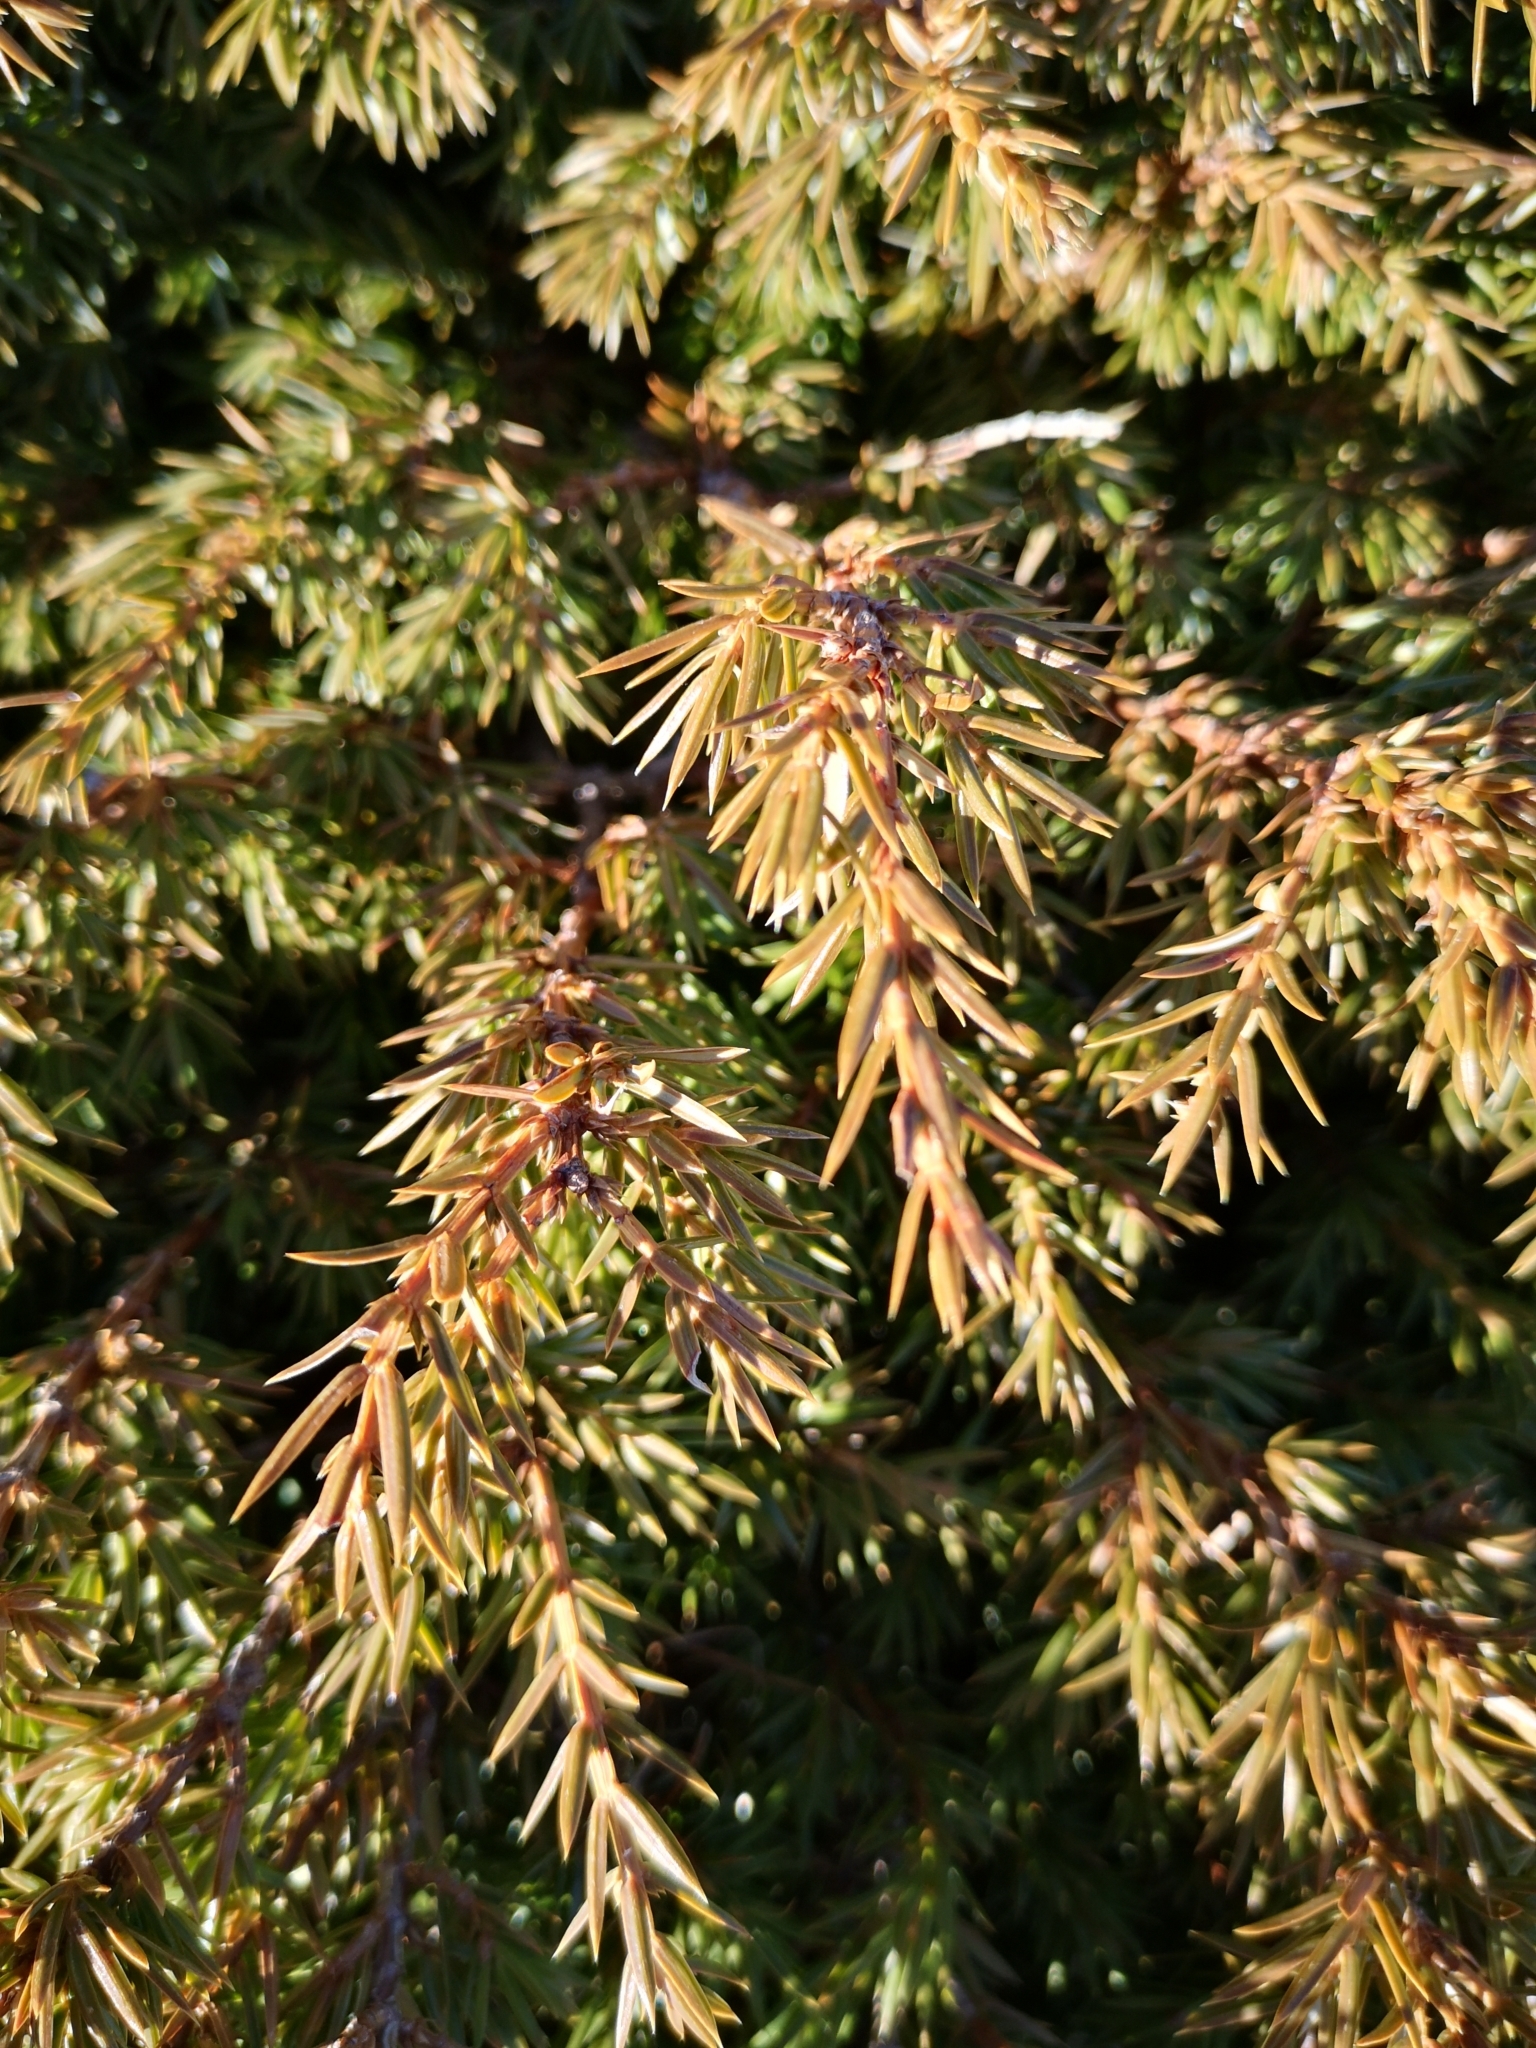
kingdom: Plantae
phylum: Tracheophyta
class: Pinopsida
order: Pinales
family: Cupressaceae
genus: Juniperus
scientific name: Juniperus communis
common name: Common juniper
